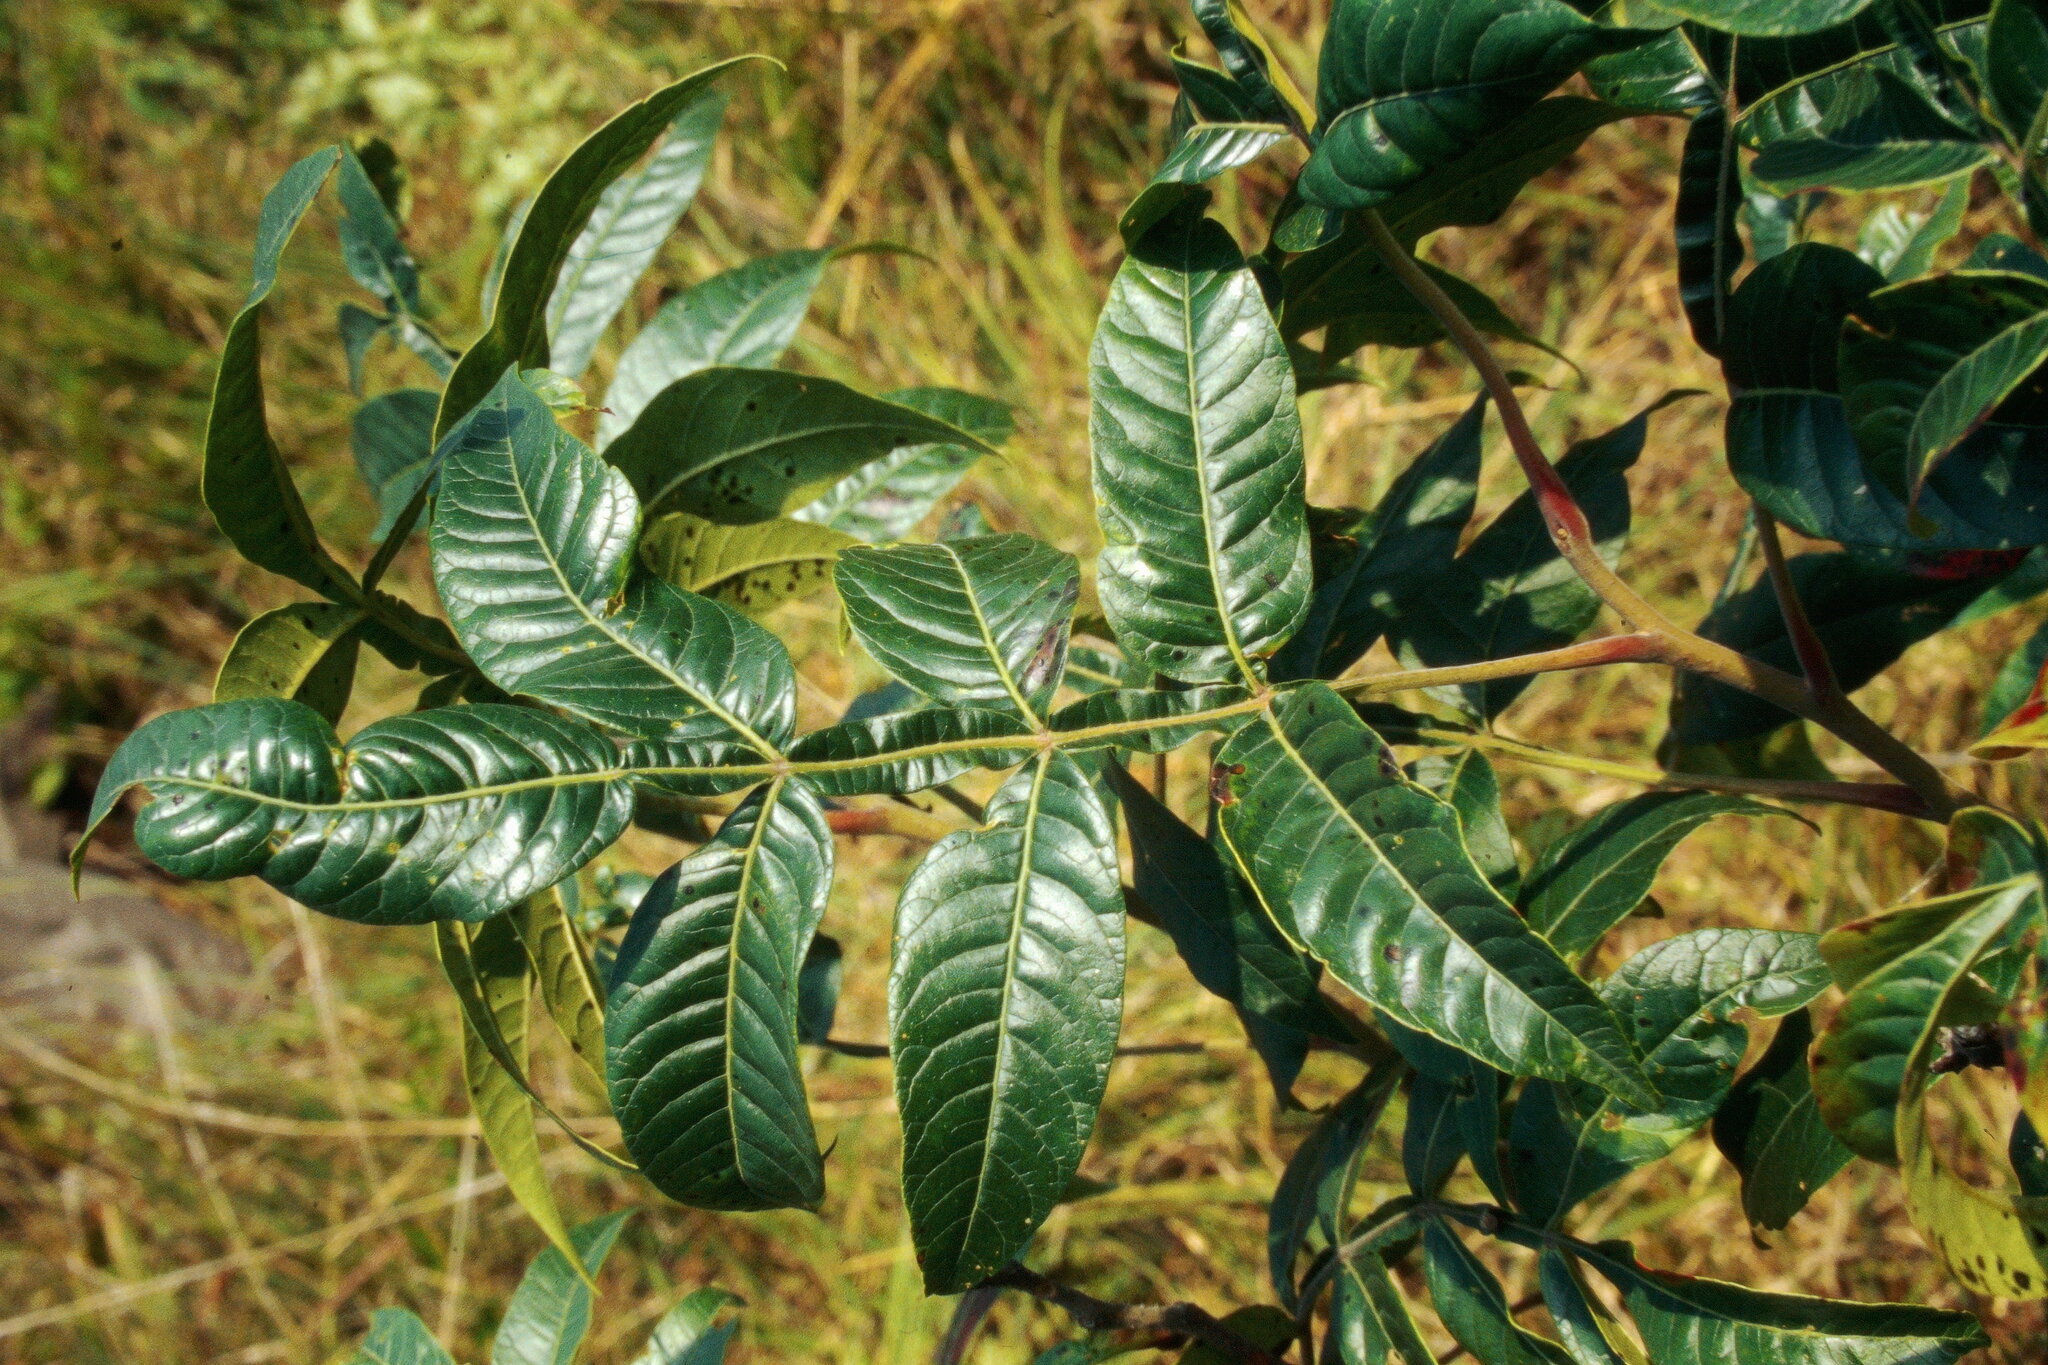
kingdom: Plantae
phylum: Tracheophyta
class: Magnoliopsida
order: Sapindales
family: Anacardiaceae
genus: Rhus
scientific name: Rhus copallina
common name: Shining sumac
